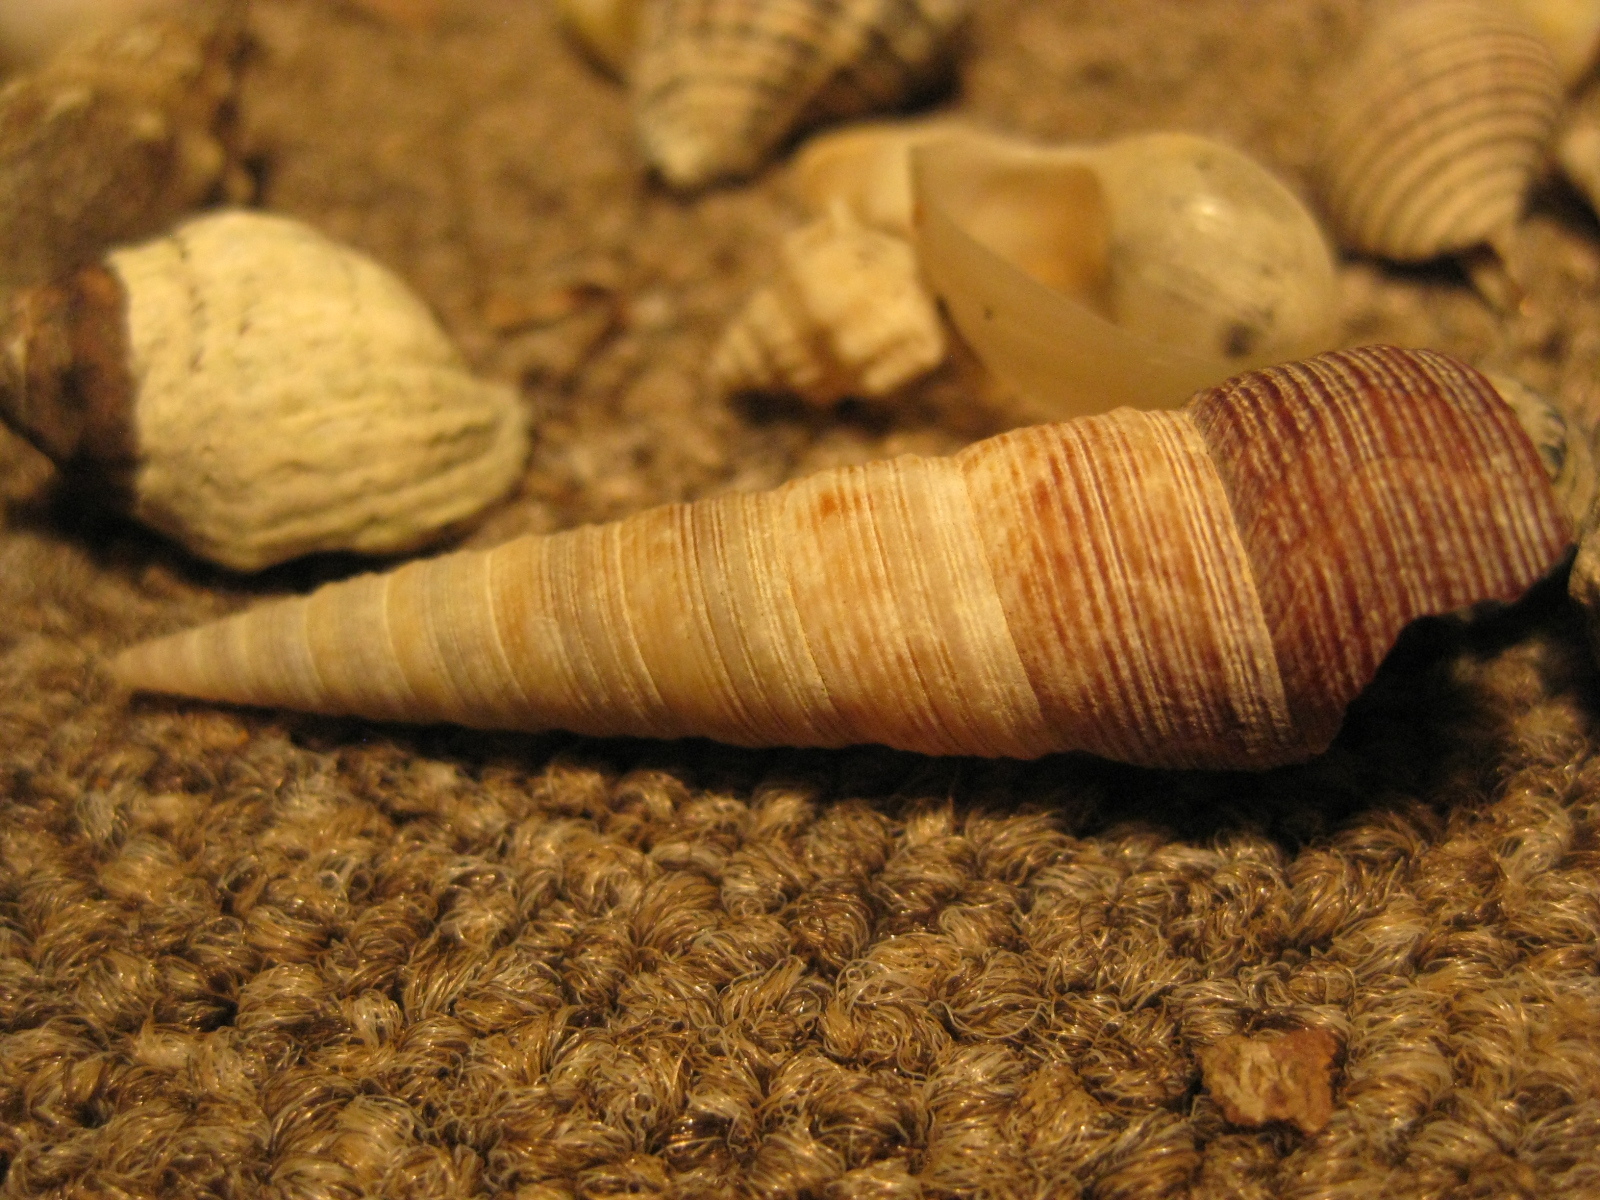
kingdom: Animalia
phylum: Mollusca
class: Gastropoda
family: Turritellidae
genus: Maoricolpus
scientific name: Maoricolpus roseus
